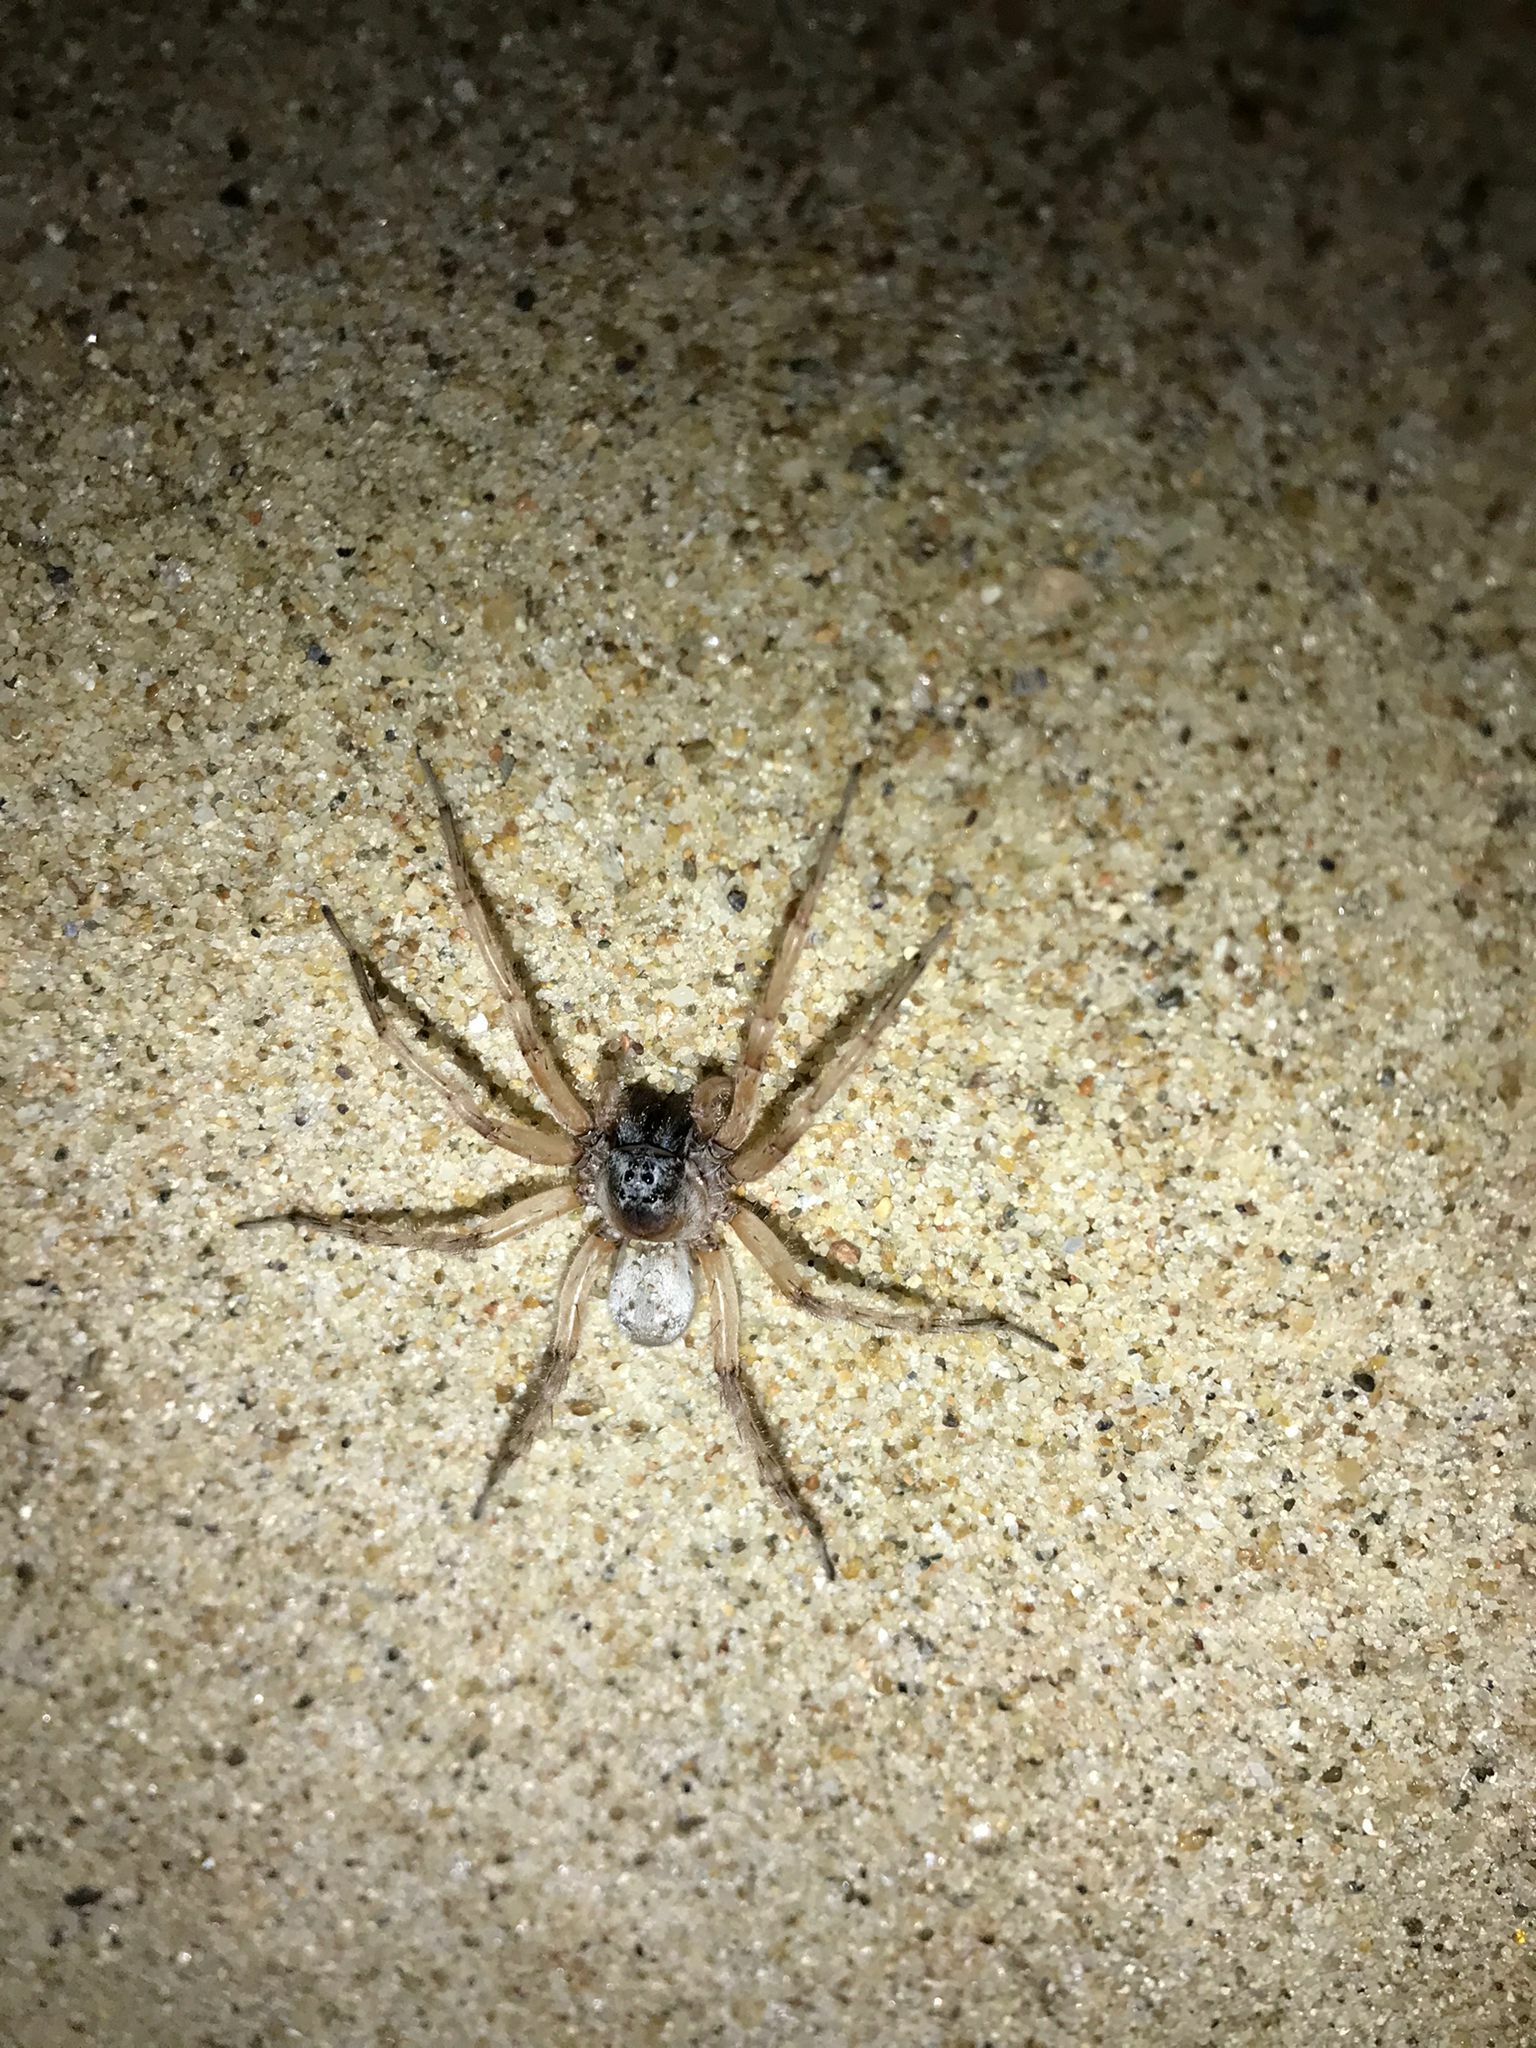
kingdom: Animalia
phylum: Arthropoda
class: Arachnida
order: Araneae
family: Lycosidae
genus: Allocosa
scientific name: Allocosa senex
